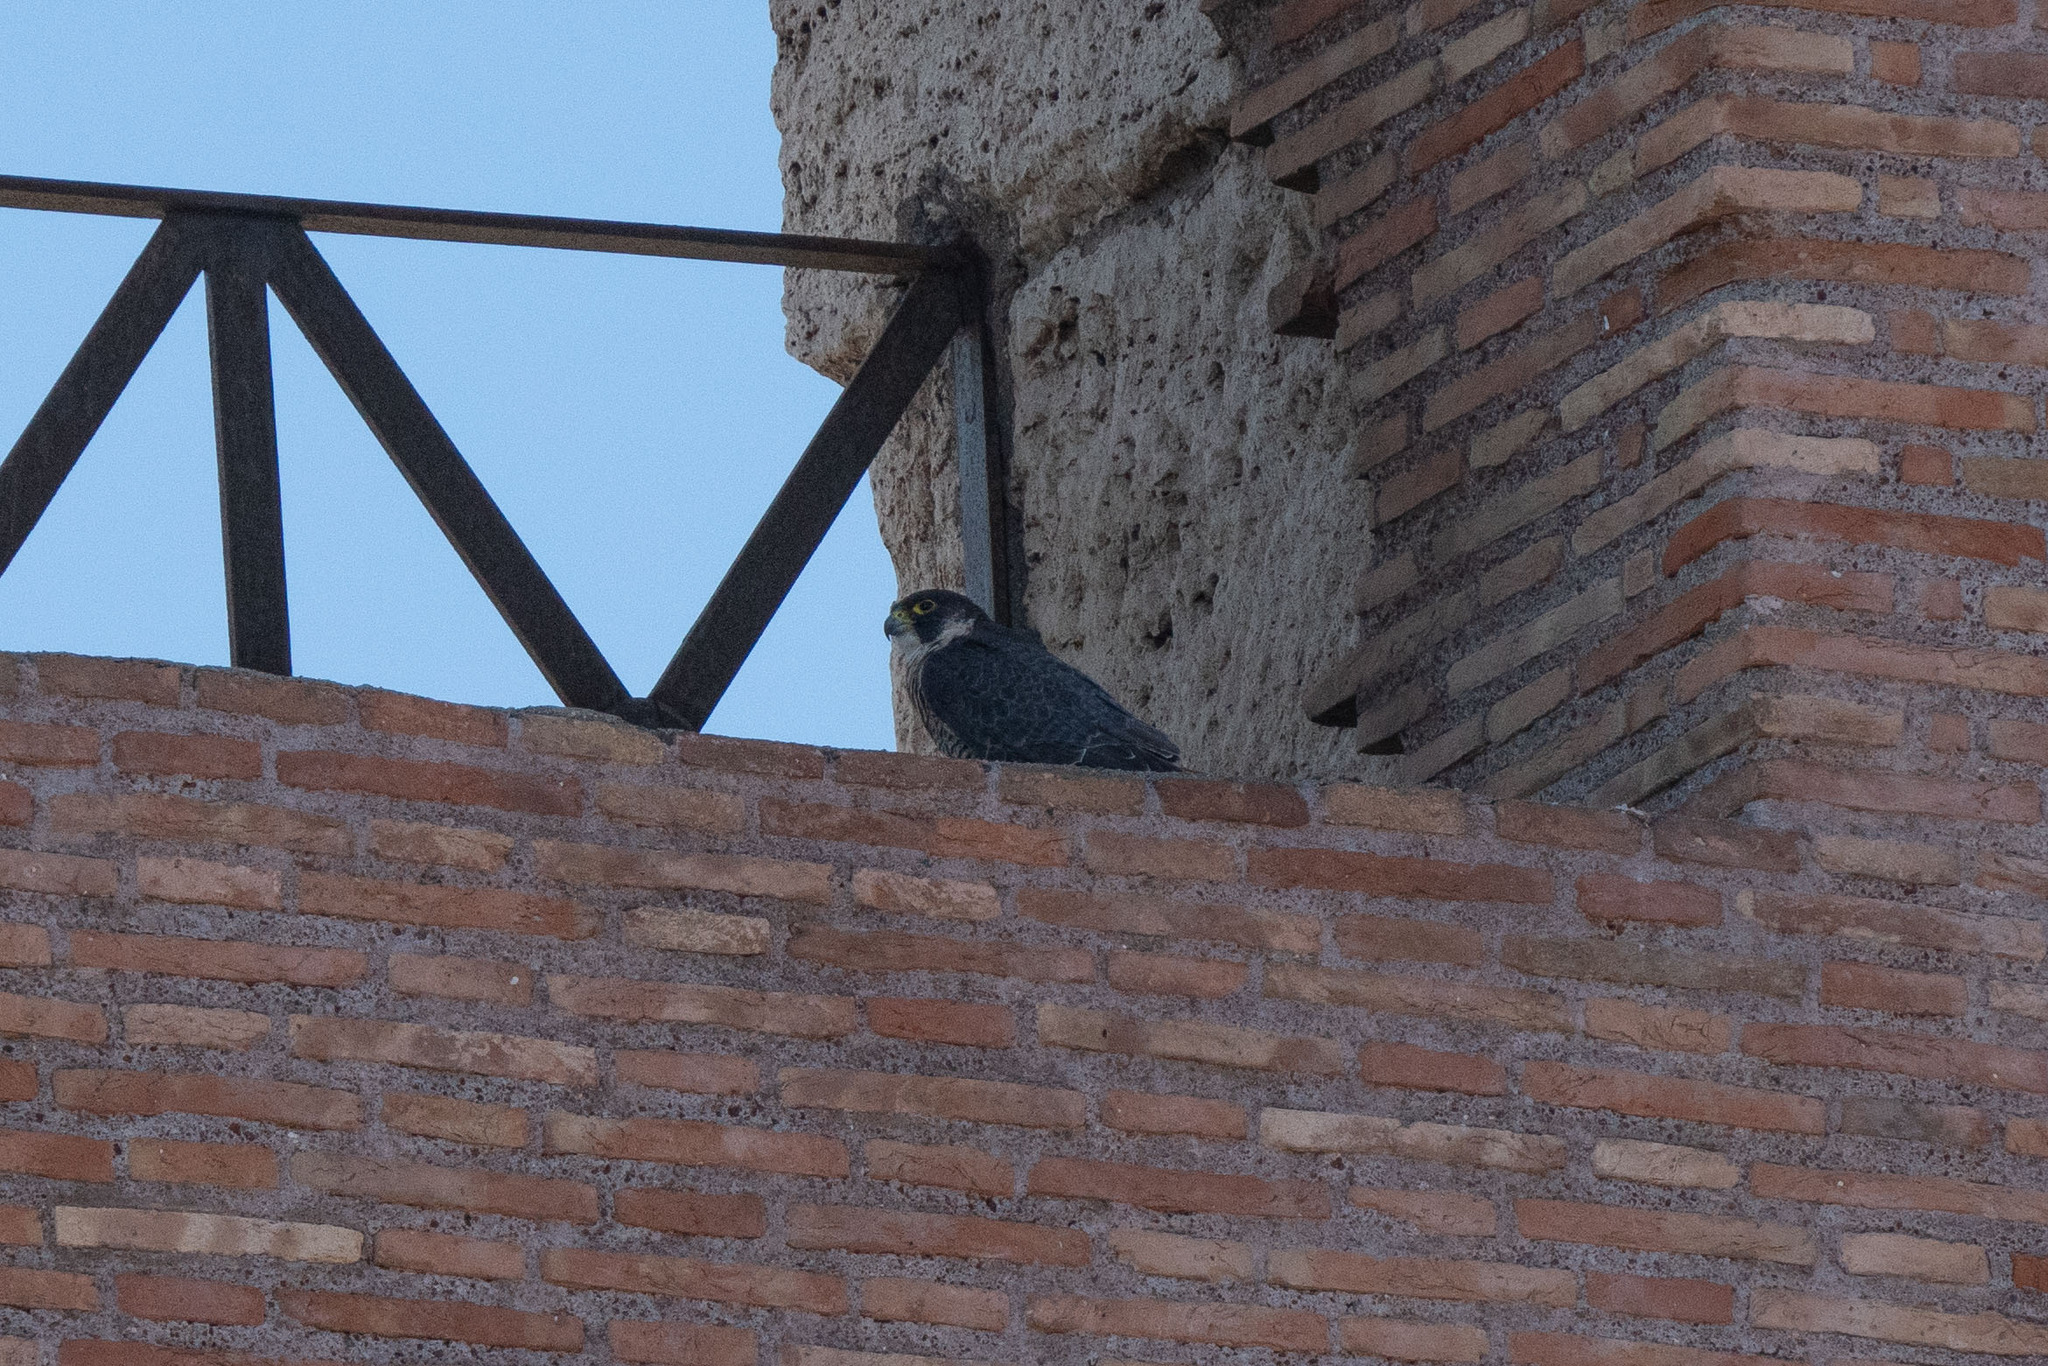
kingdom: Animalia
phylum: Chordata
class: Aves
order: Falconiformes
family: Falconidae
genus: Falco
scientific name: Falco peregrinus
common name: Peregrine falcon
